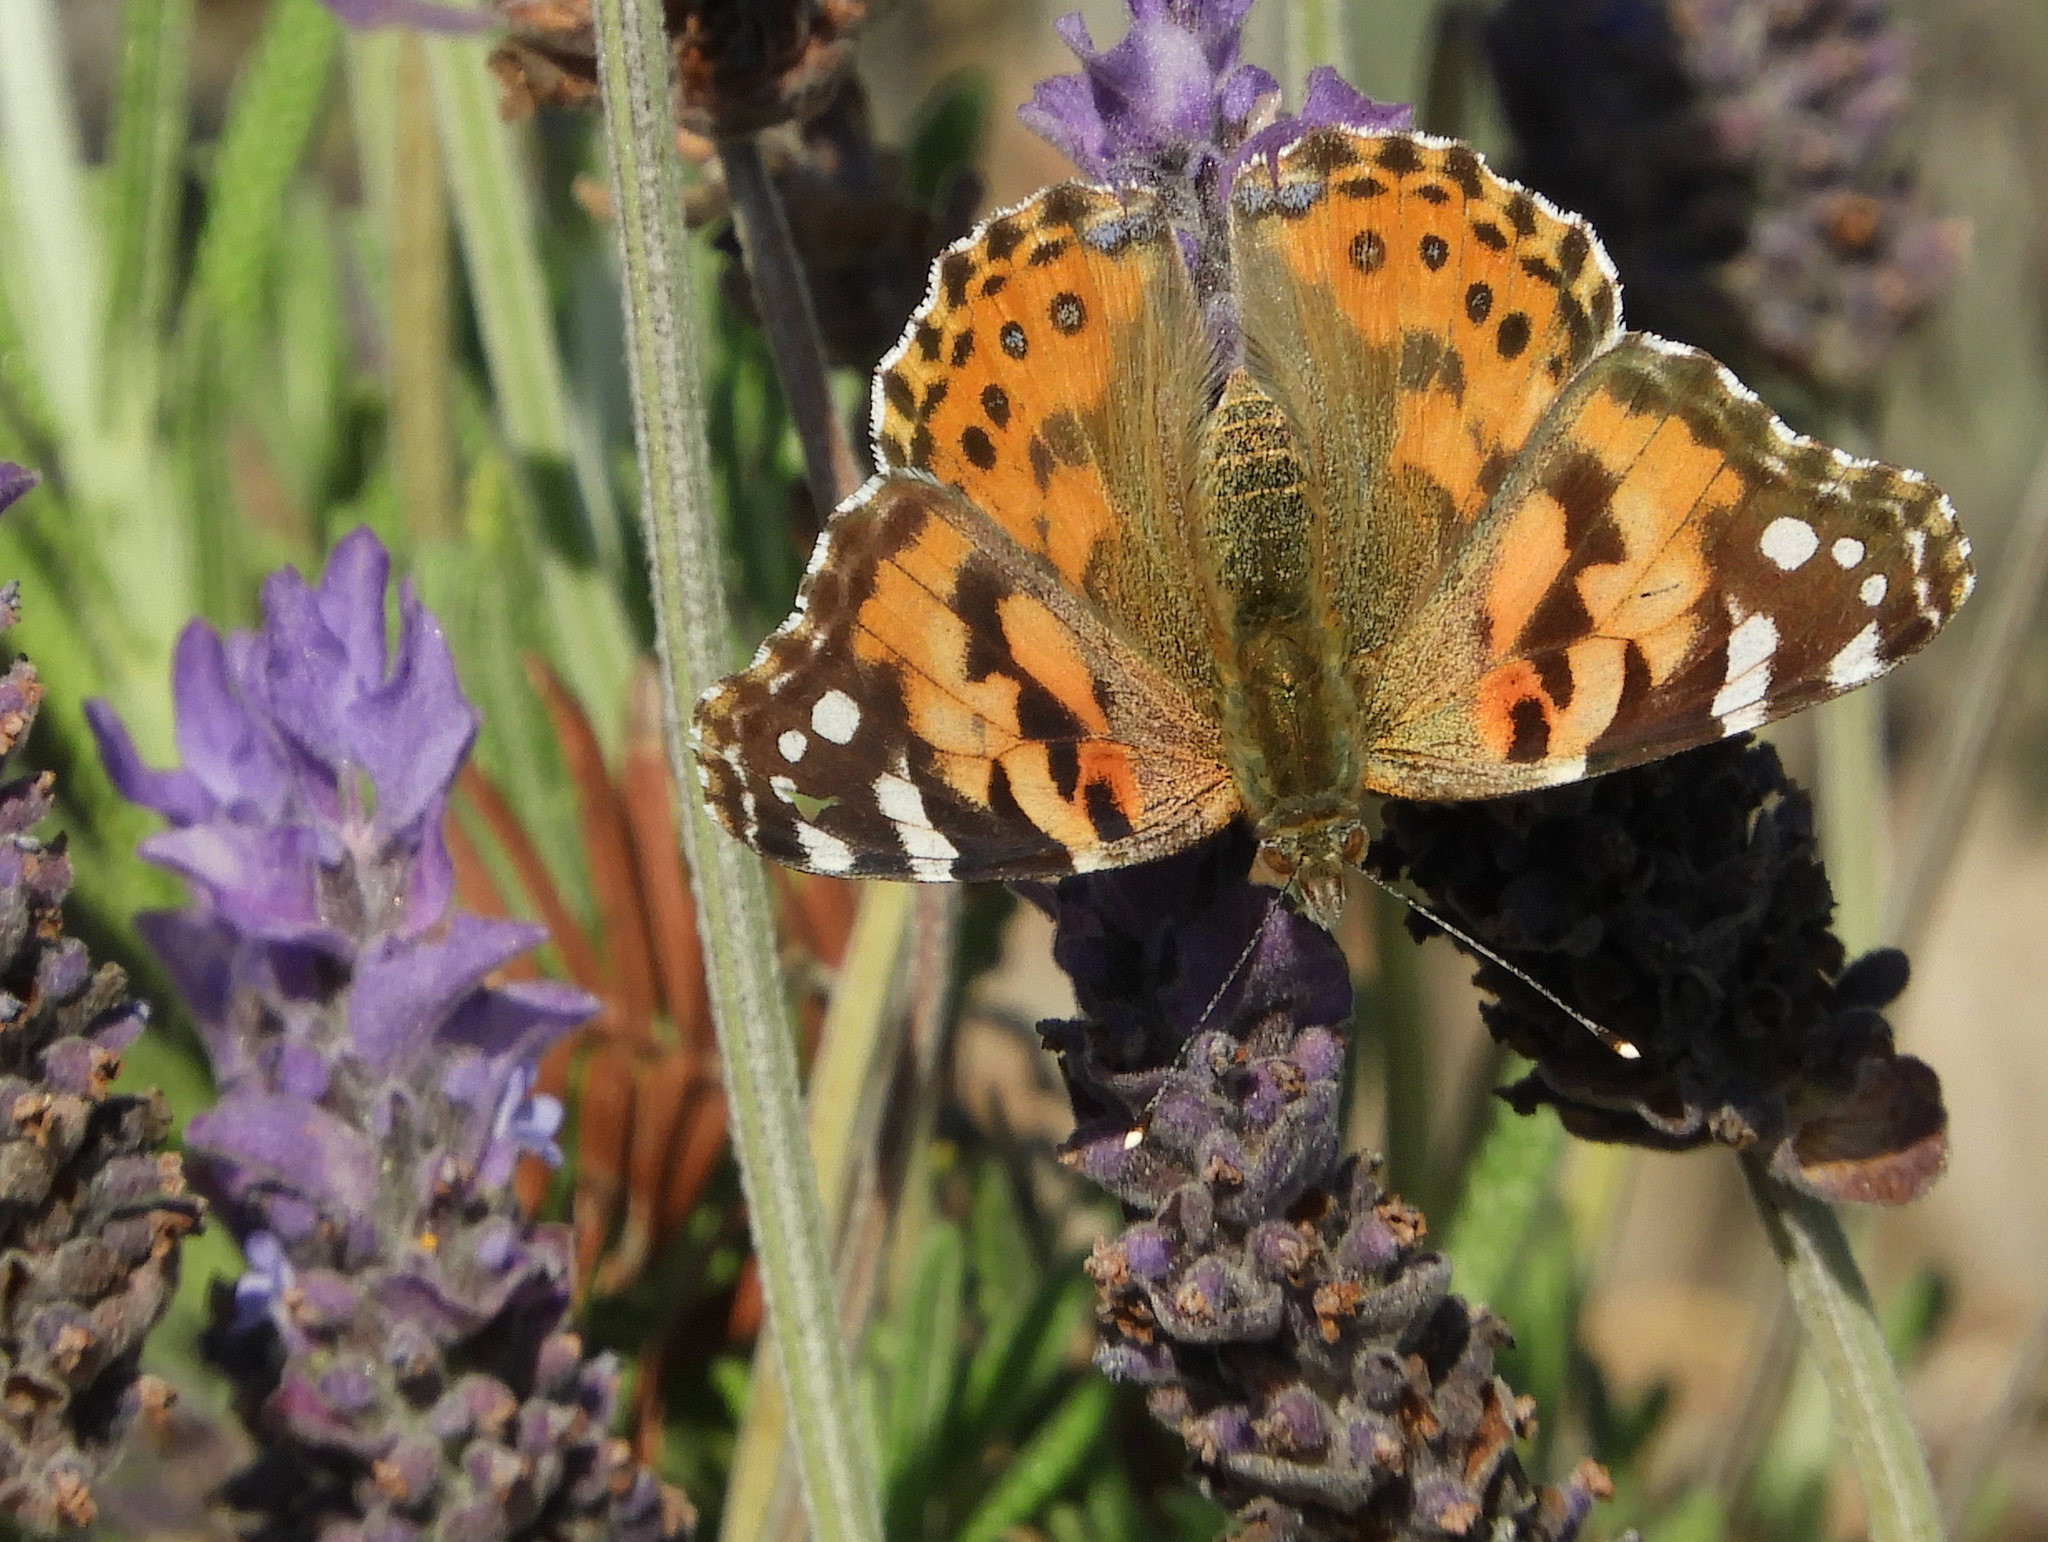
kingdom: Animalia
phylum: Arthropoda
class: Insecta
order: Lepidoptera
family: Nymphalidae
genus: Vanessa
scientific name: Vanessa cardui
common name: Painted lady
